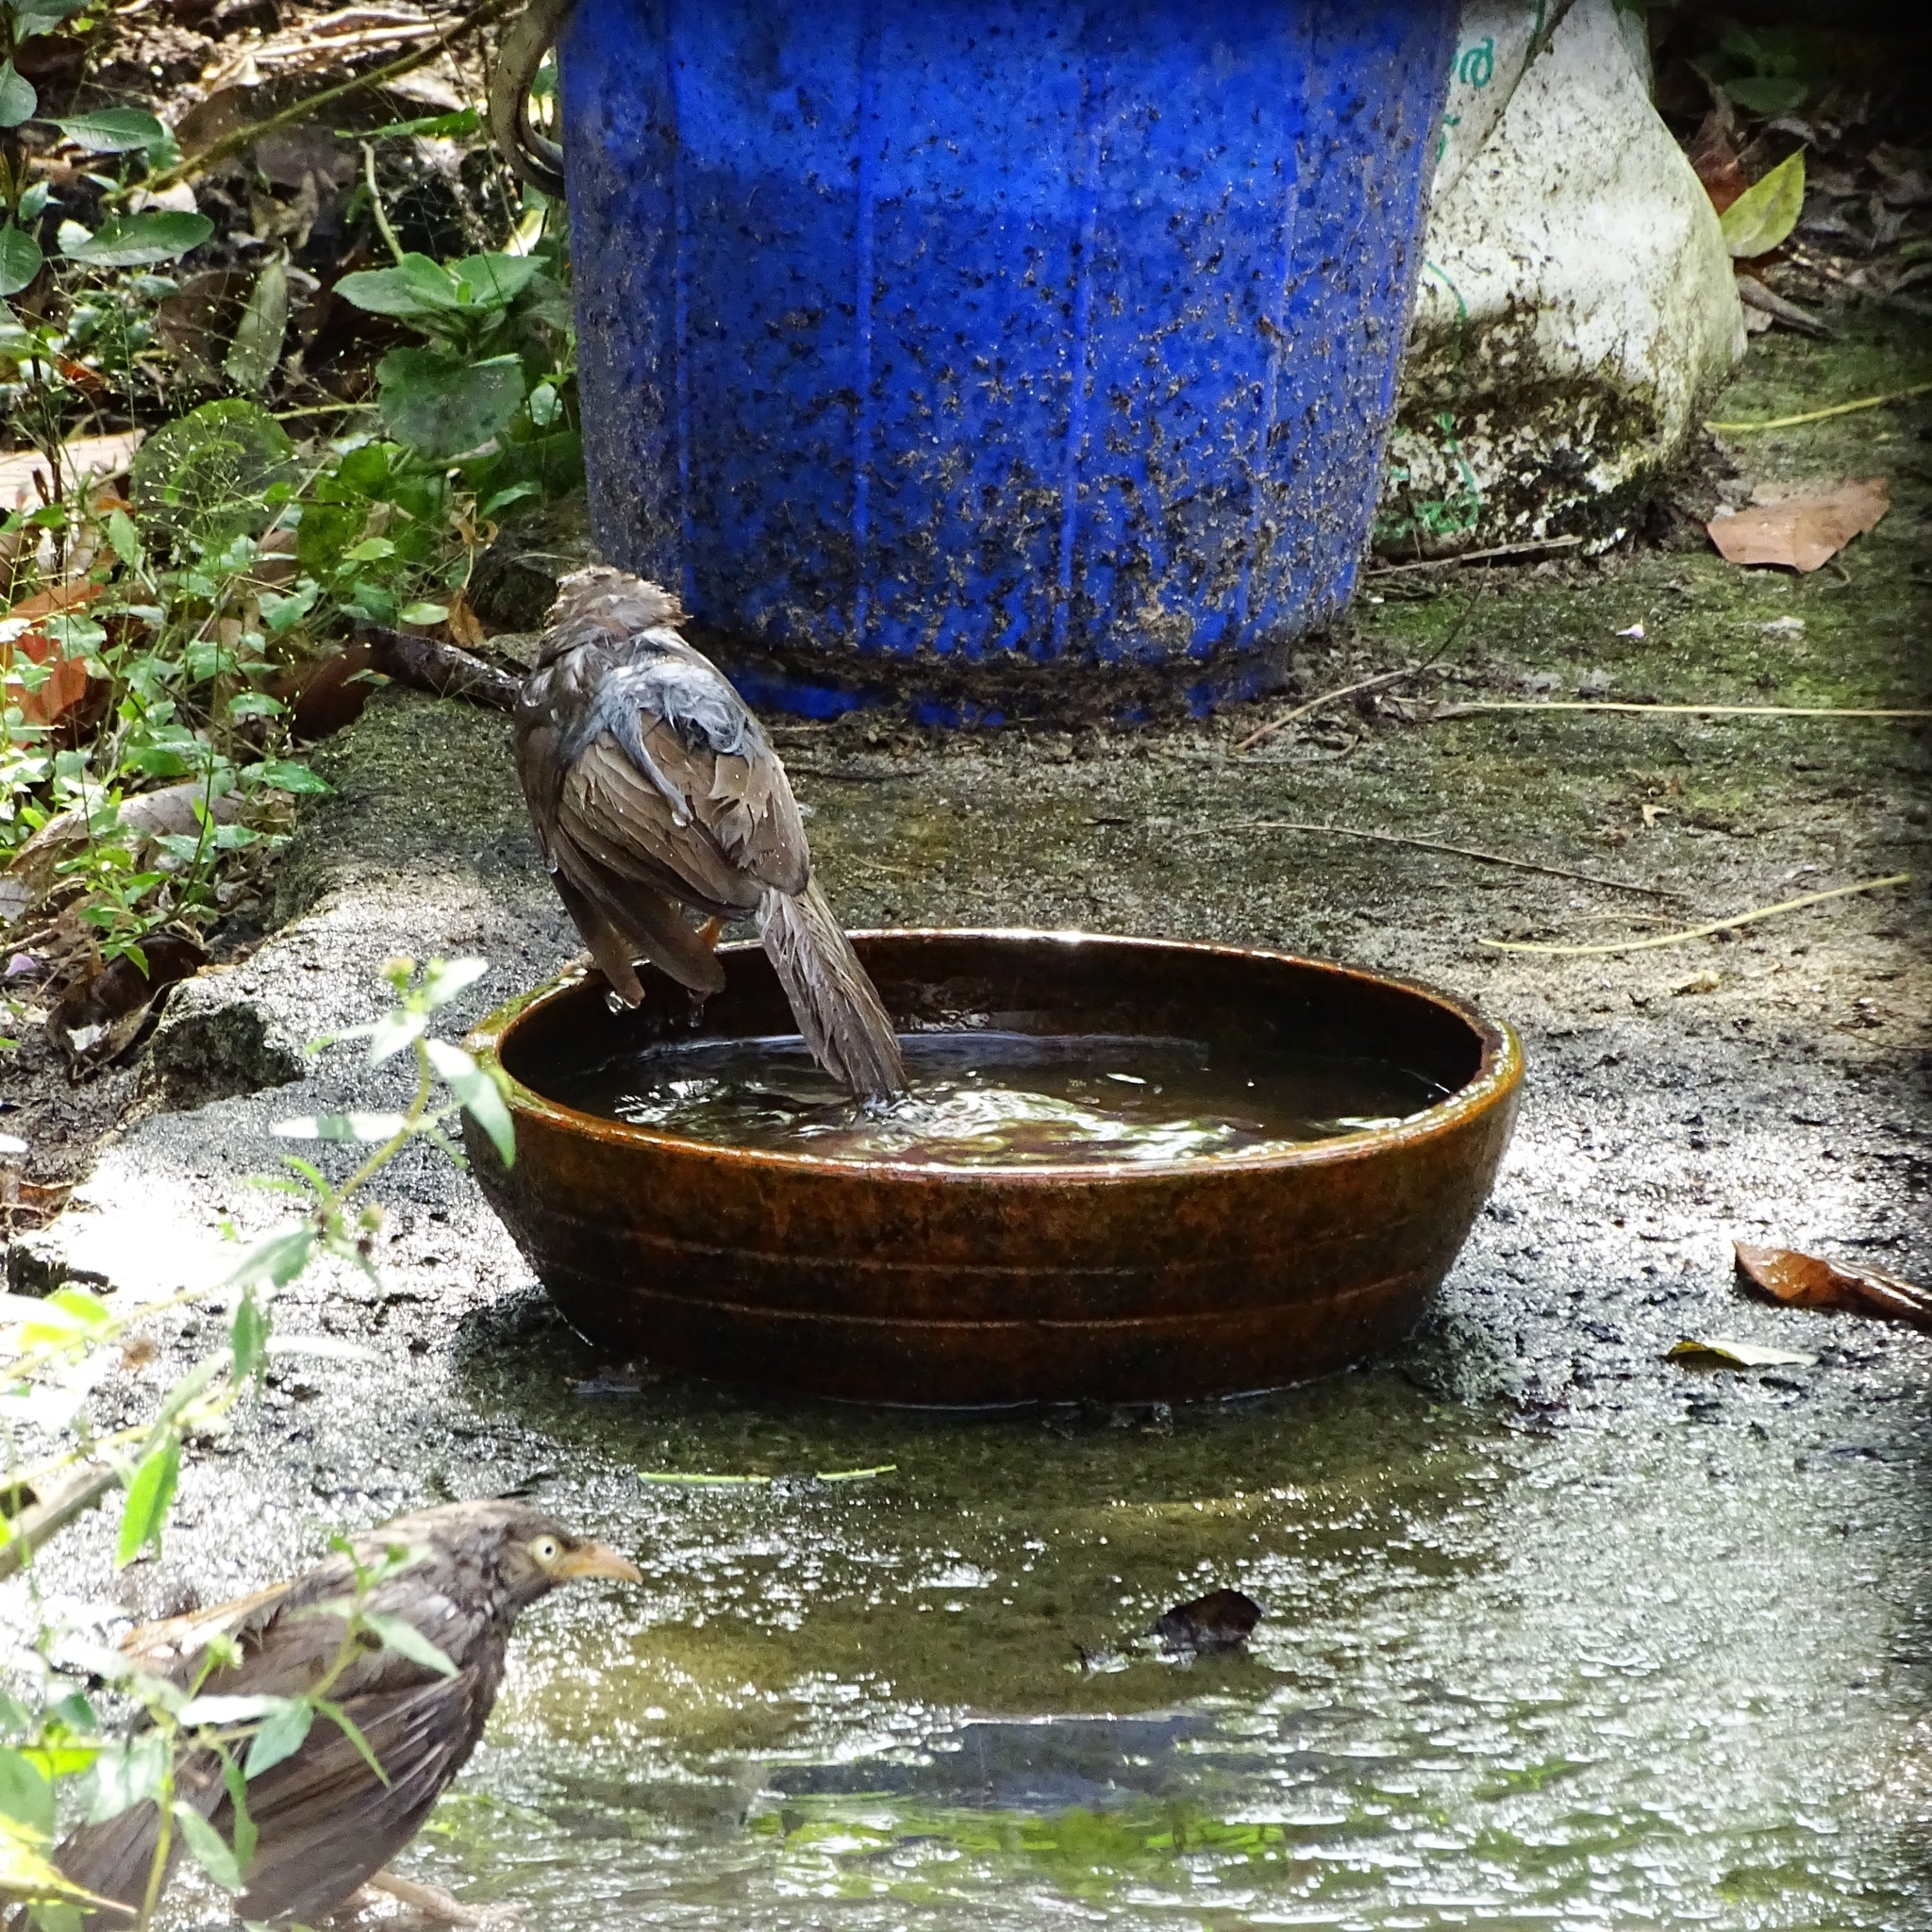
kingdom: Animalia
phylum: Chordata
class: Aves
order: Passeriformes
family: Leiothrichidae
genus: Turdoides
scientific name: Turdoides striata
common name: Jungle babbler
